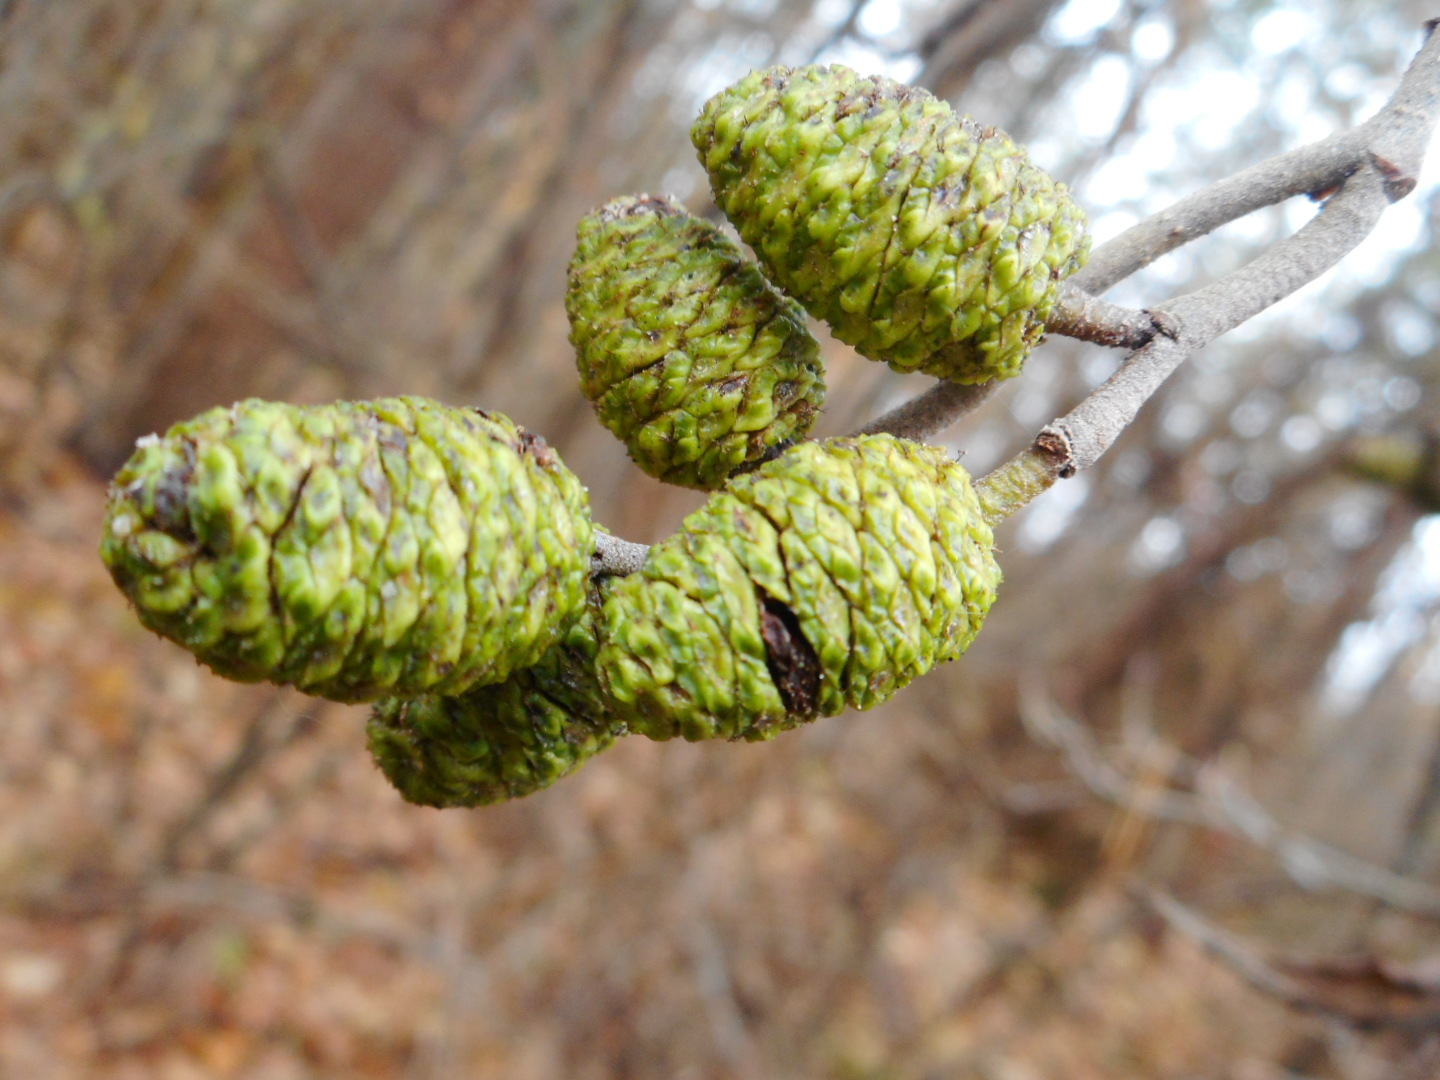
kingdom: Plantae
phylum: Tracheophyta
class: Magnoliopsida
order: Fagales
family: Betulaceae
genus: Alnus
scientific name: Alnus incana
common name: Grey alder
